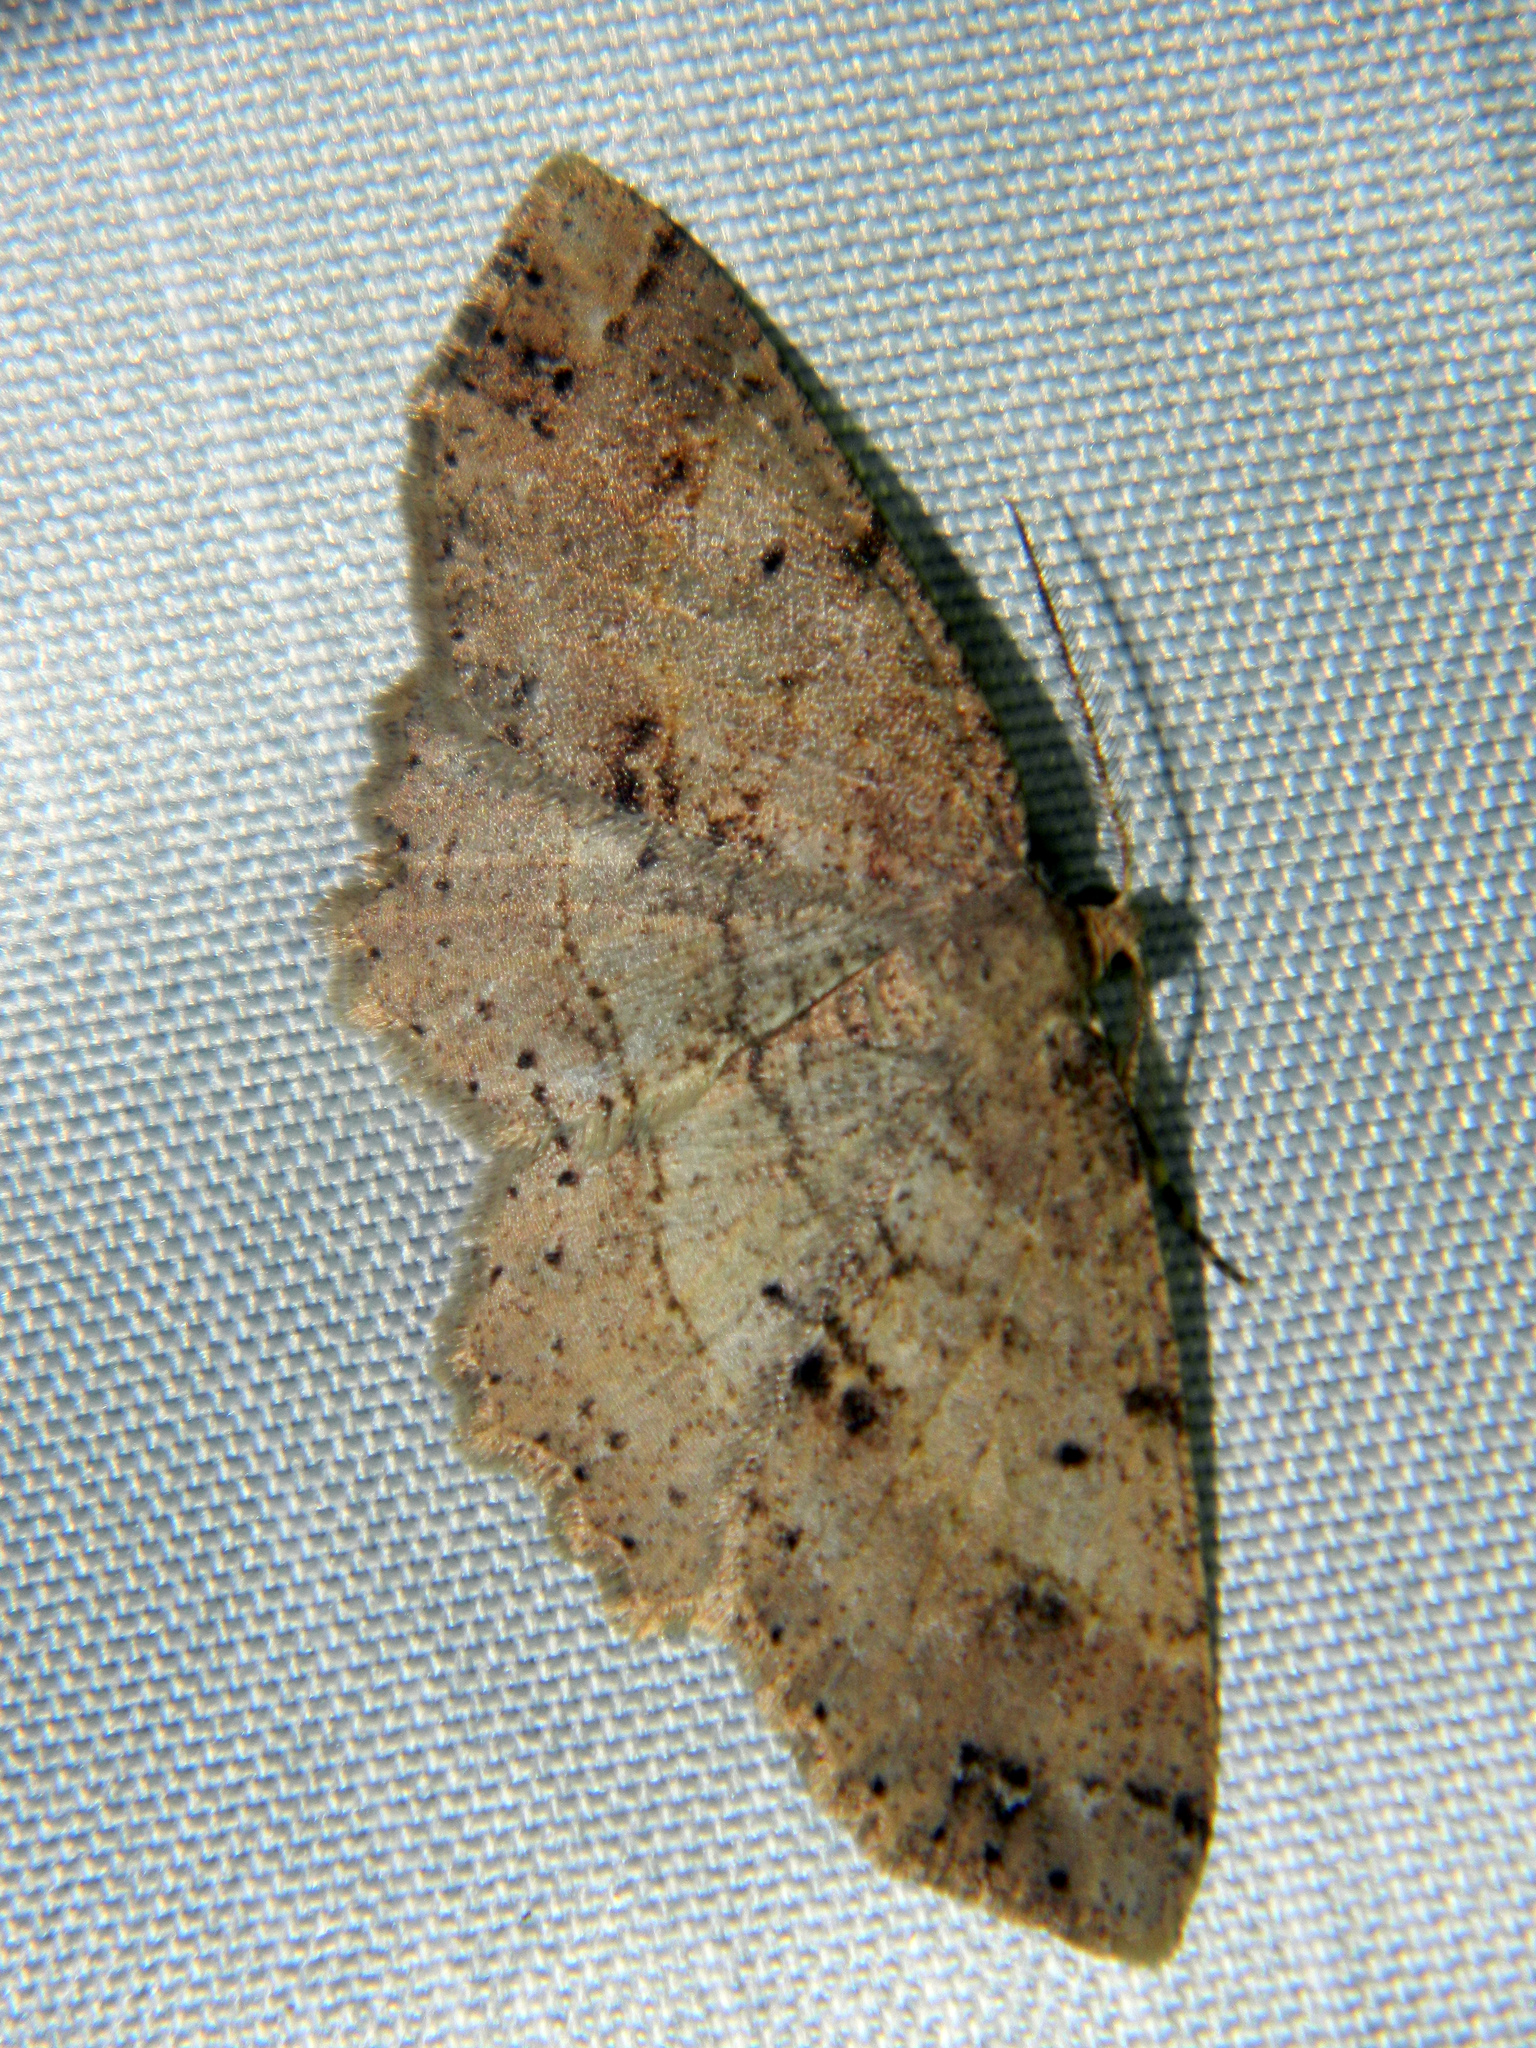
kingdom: Animalia
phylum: Arthropoda
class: Insecta
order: Lepidoptera
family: Geometridae
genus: Melanolophia
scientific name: Melanolophia signataria
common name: Signate melanolophia
